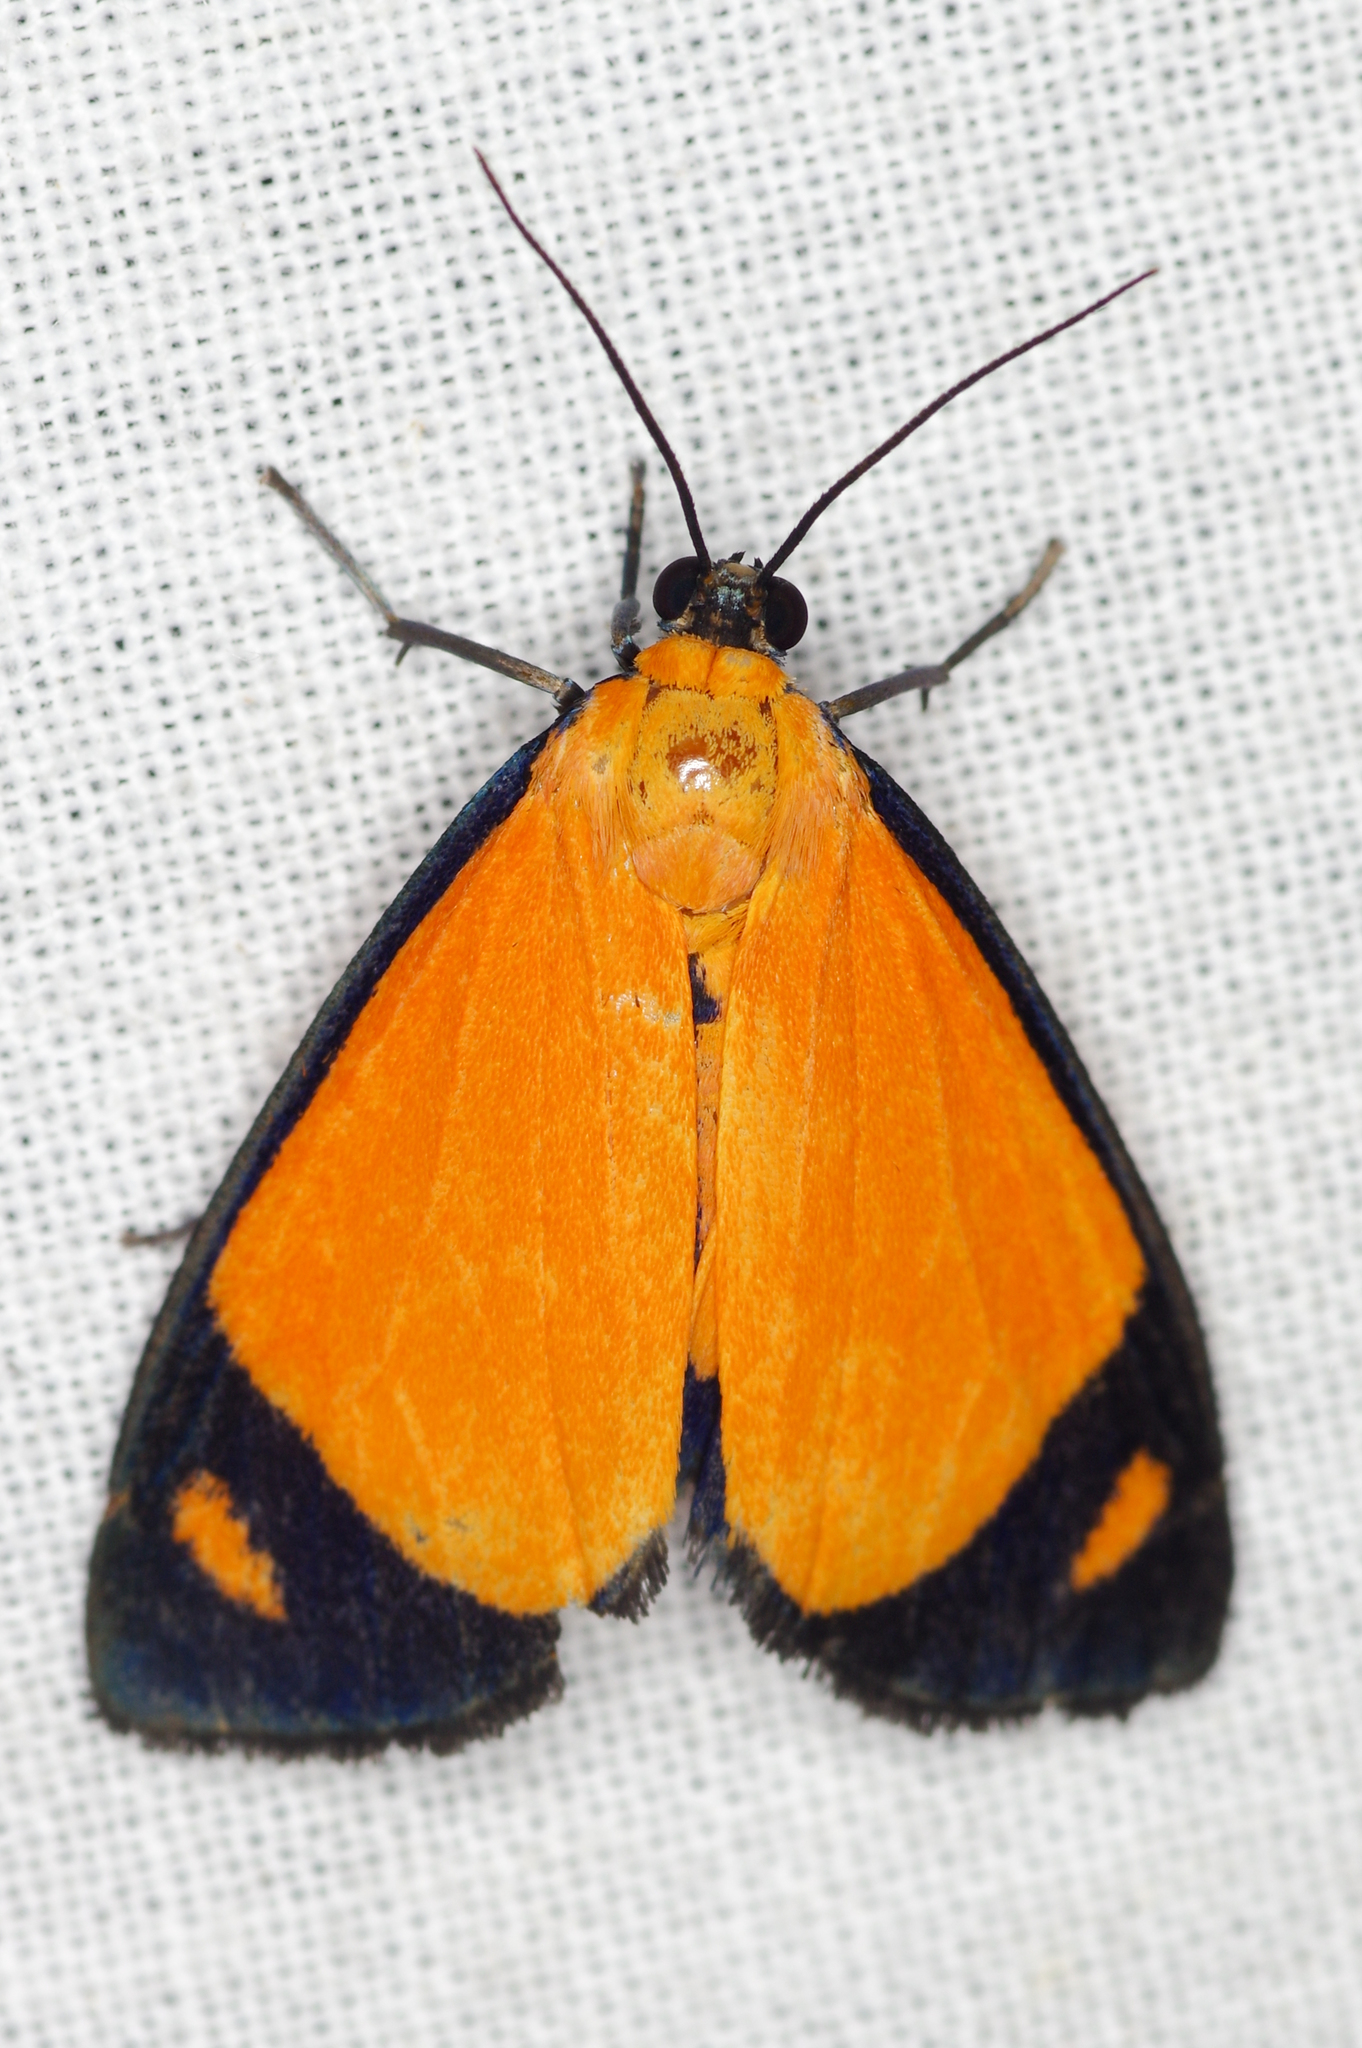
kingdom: Animalia
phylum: Arthropoda
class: Insecta
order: Lepidoptera
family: Erebidae
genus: Antona
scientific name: Antona repleta
